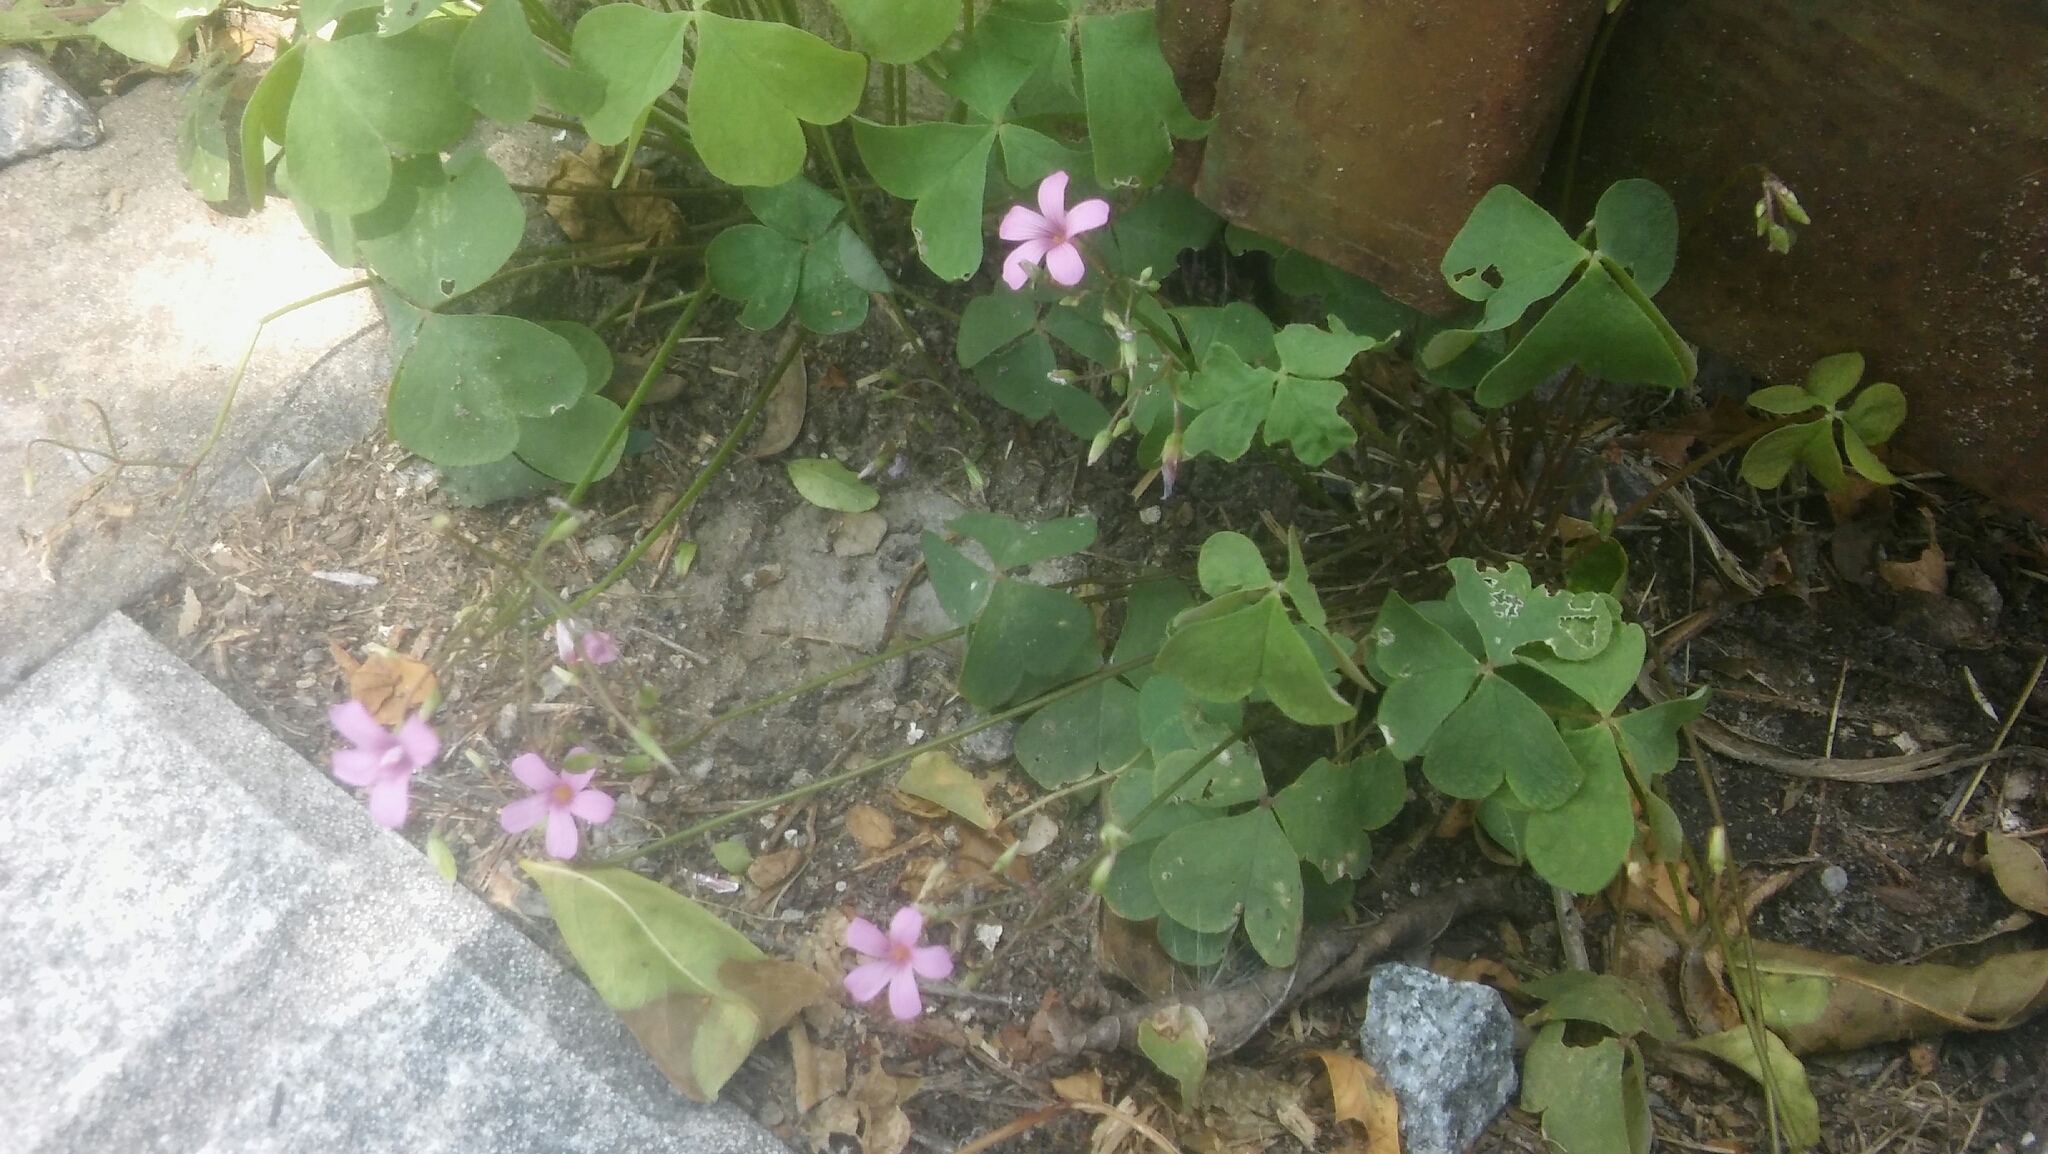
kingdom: Plantae
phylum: Tracheophyta
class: Magnoliopsida
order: Oxalidales
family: Oxalidaceae
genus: Oxalis
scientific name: Oxalis articulata
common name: Pink-sorrel
